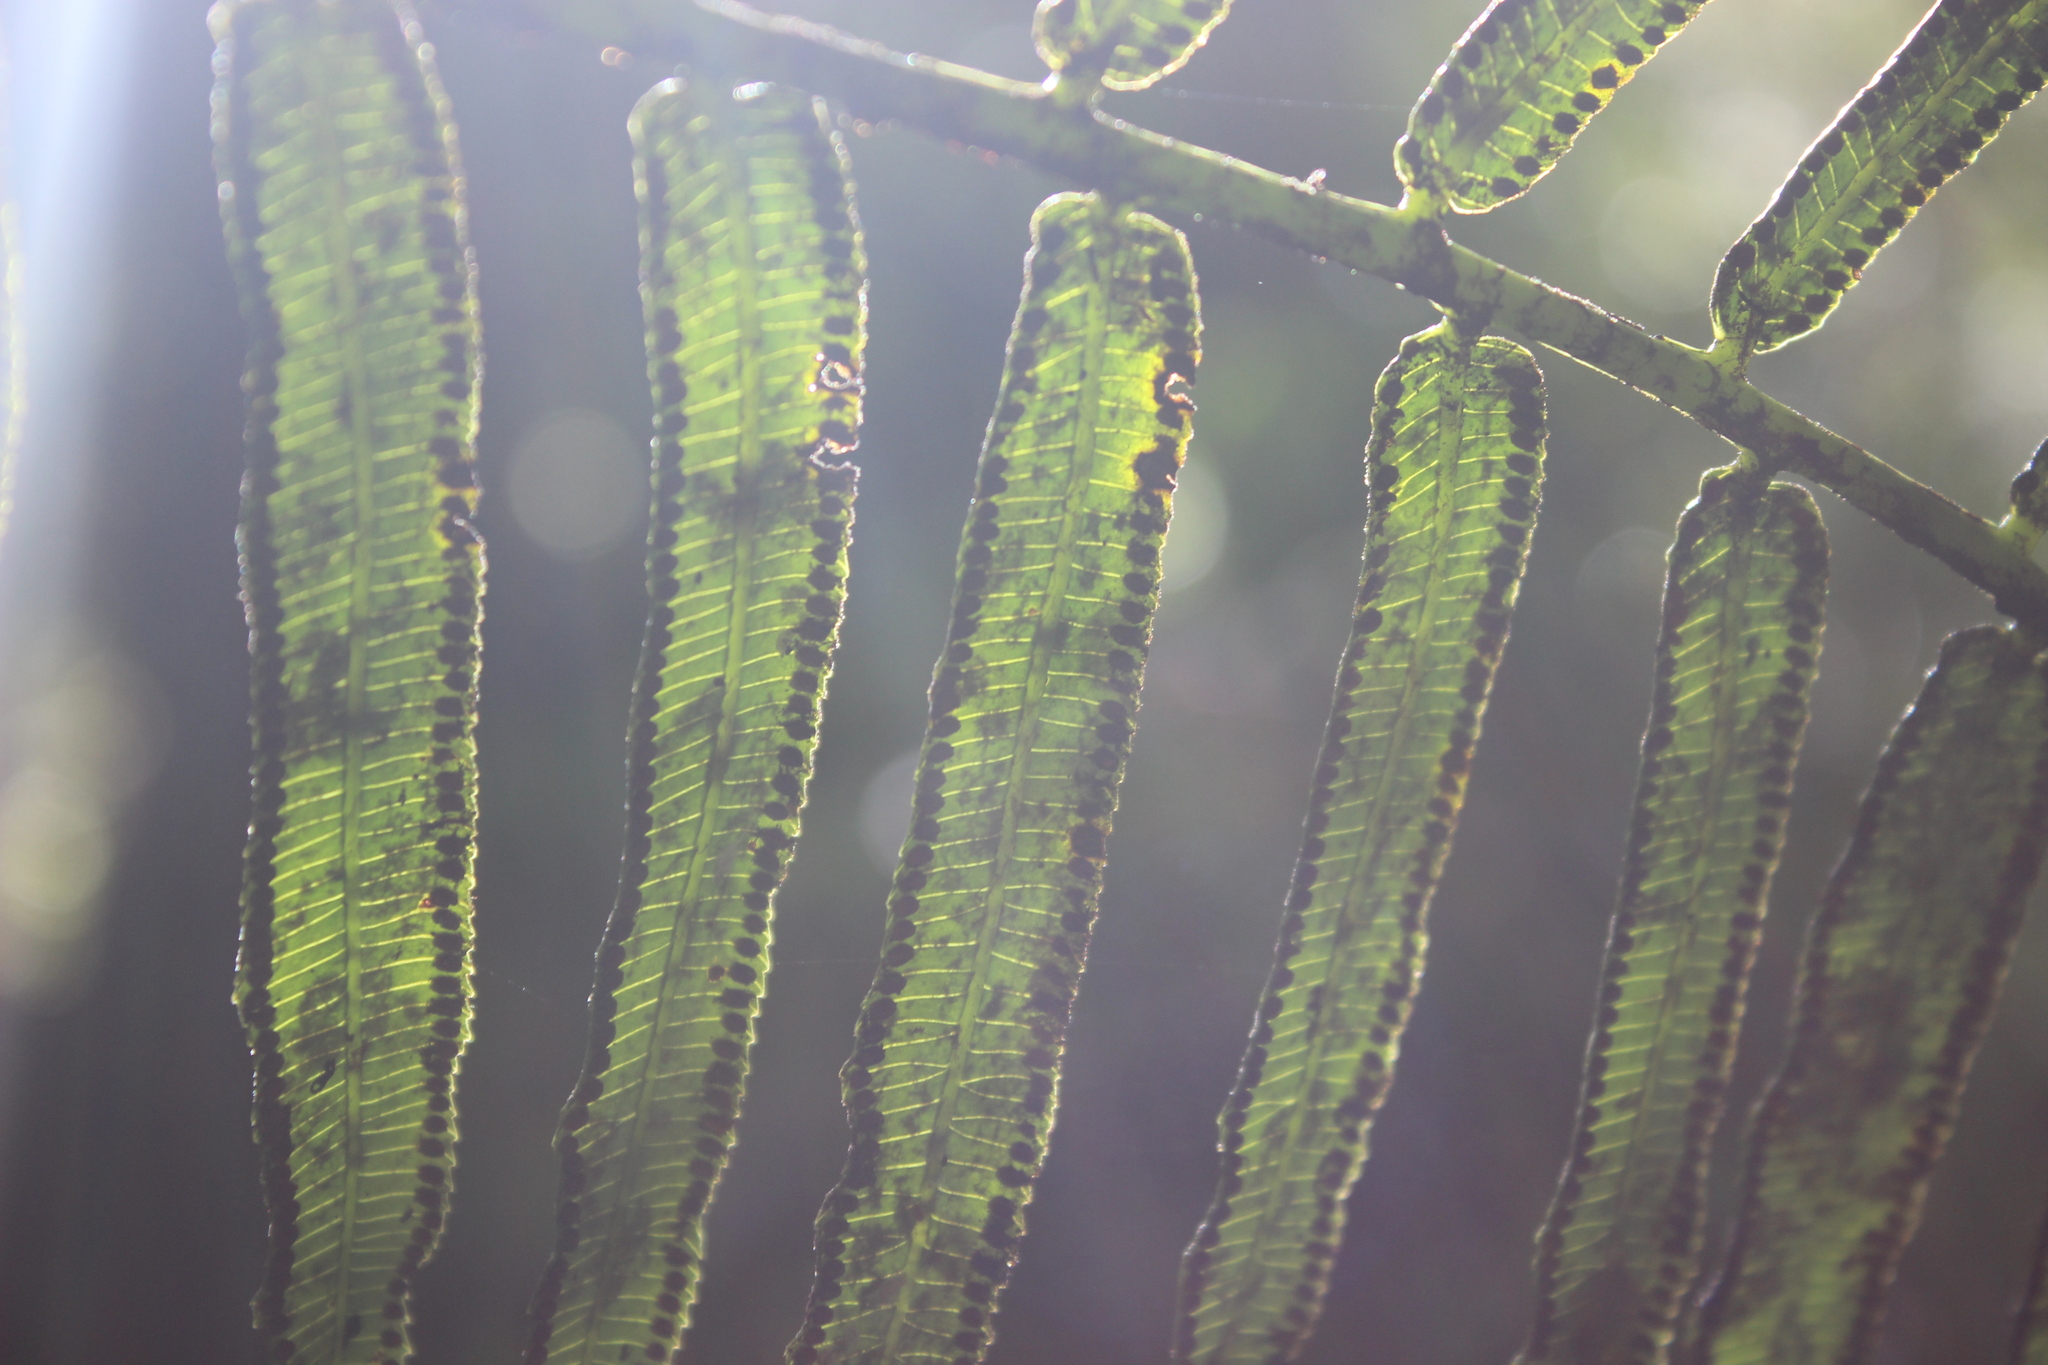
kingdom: Plantae
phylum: Tracheophyta
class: Polypodiopsida
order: Marattiales
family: Marattiaceae
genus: Ptisana
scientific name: Ptisana salicina
